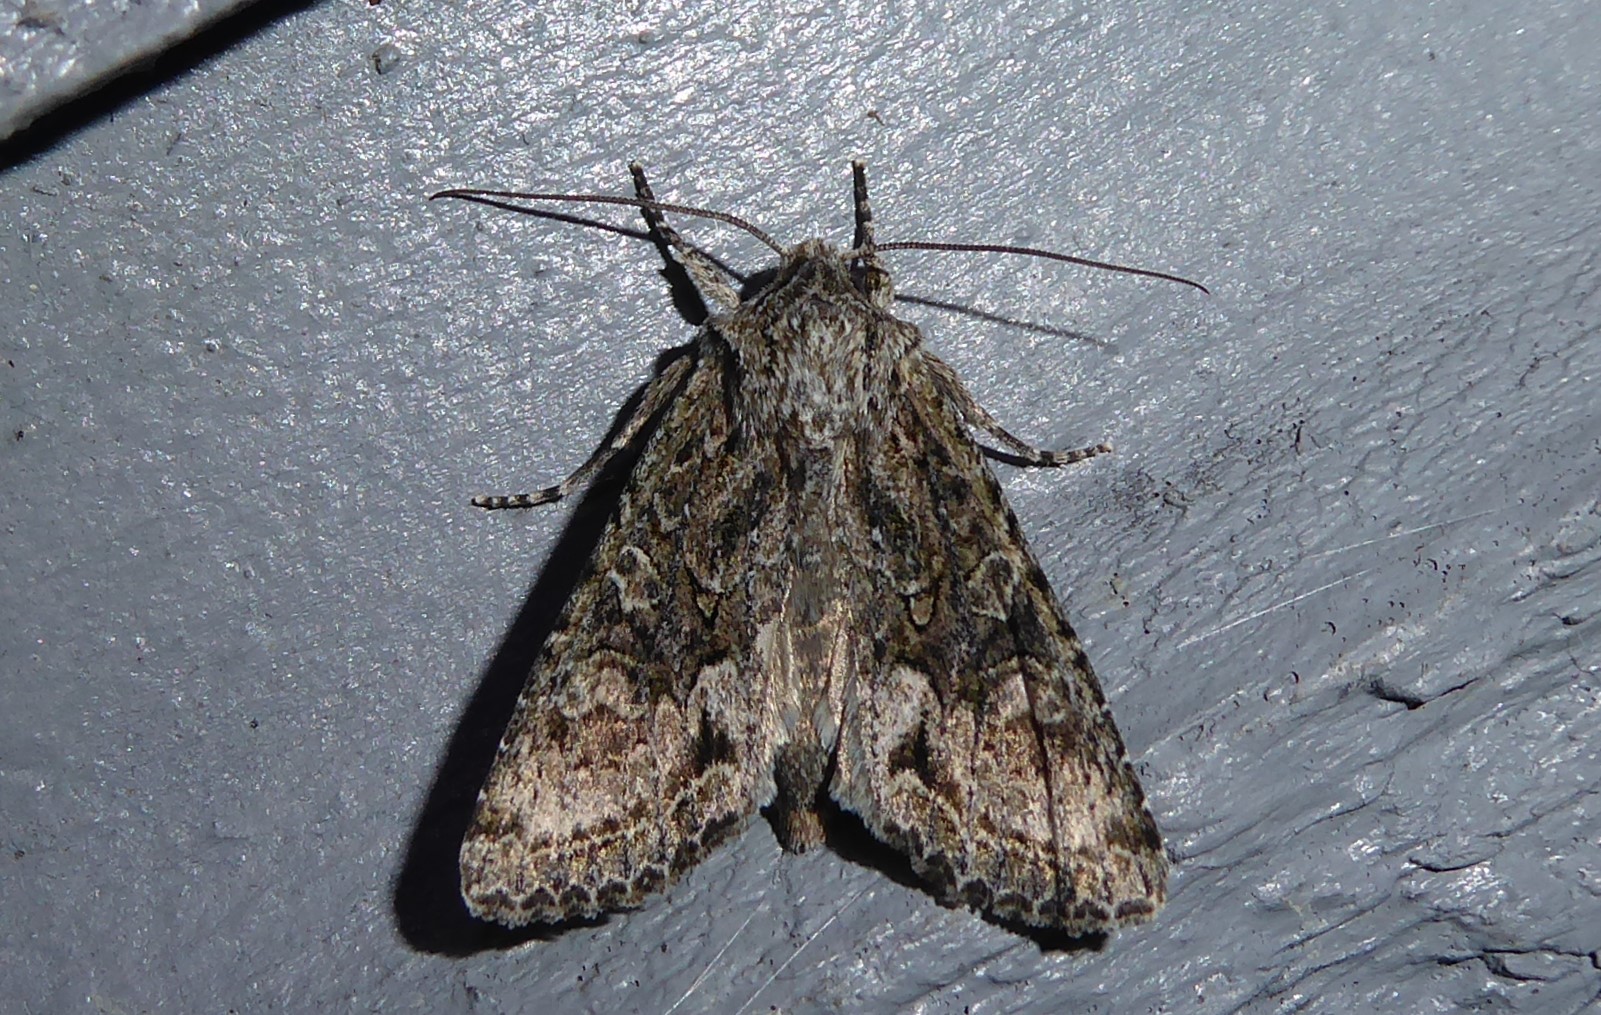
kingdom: Animalia
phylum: Arthropoda
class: Insecta
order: Lepidoptera
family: Noctuidae
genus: Ichneutica
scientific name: Ichneutica mutans
